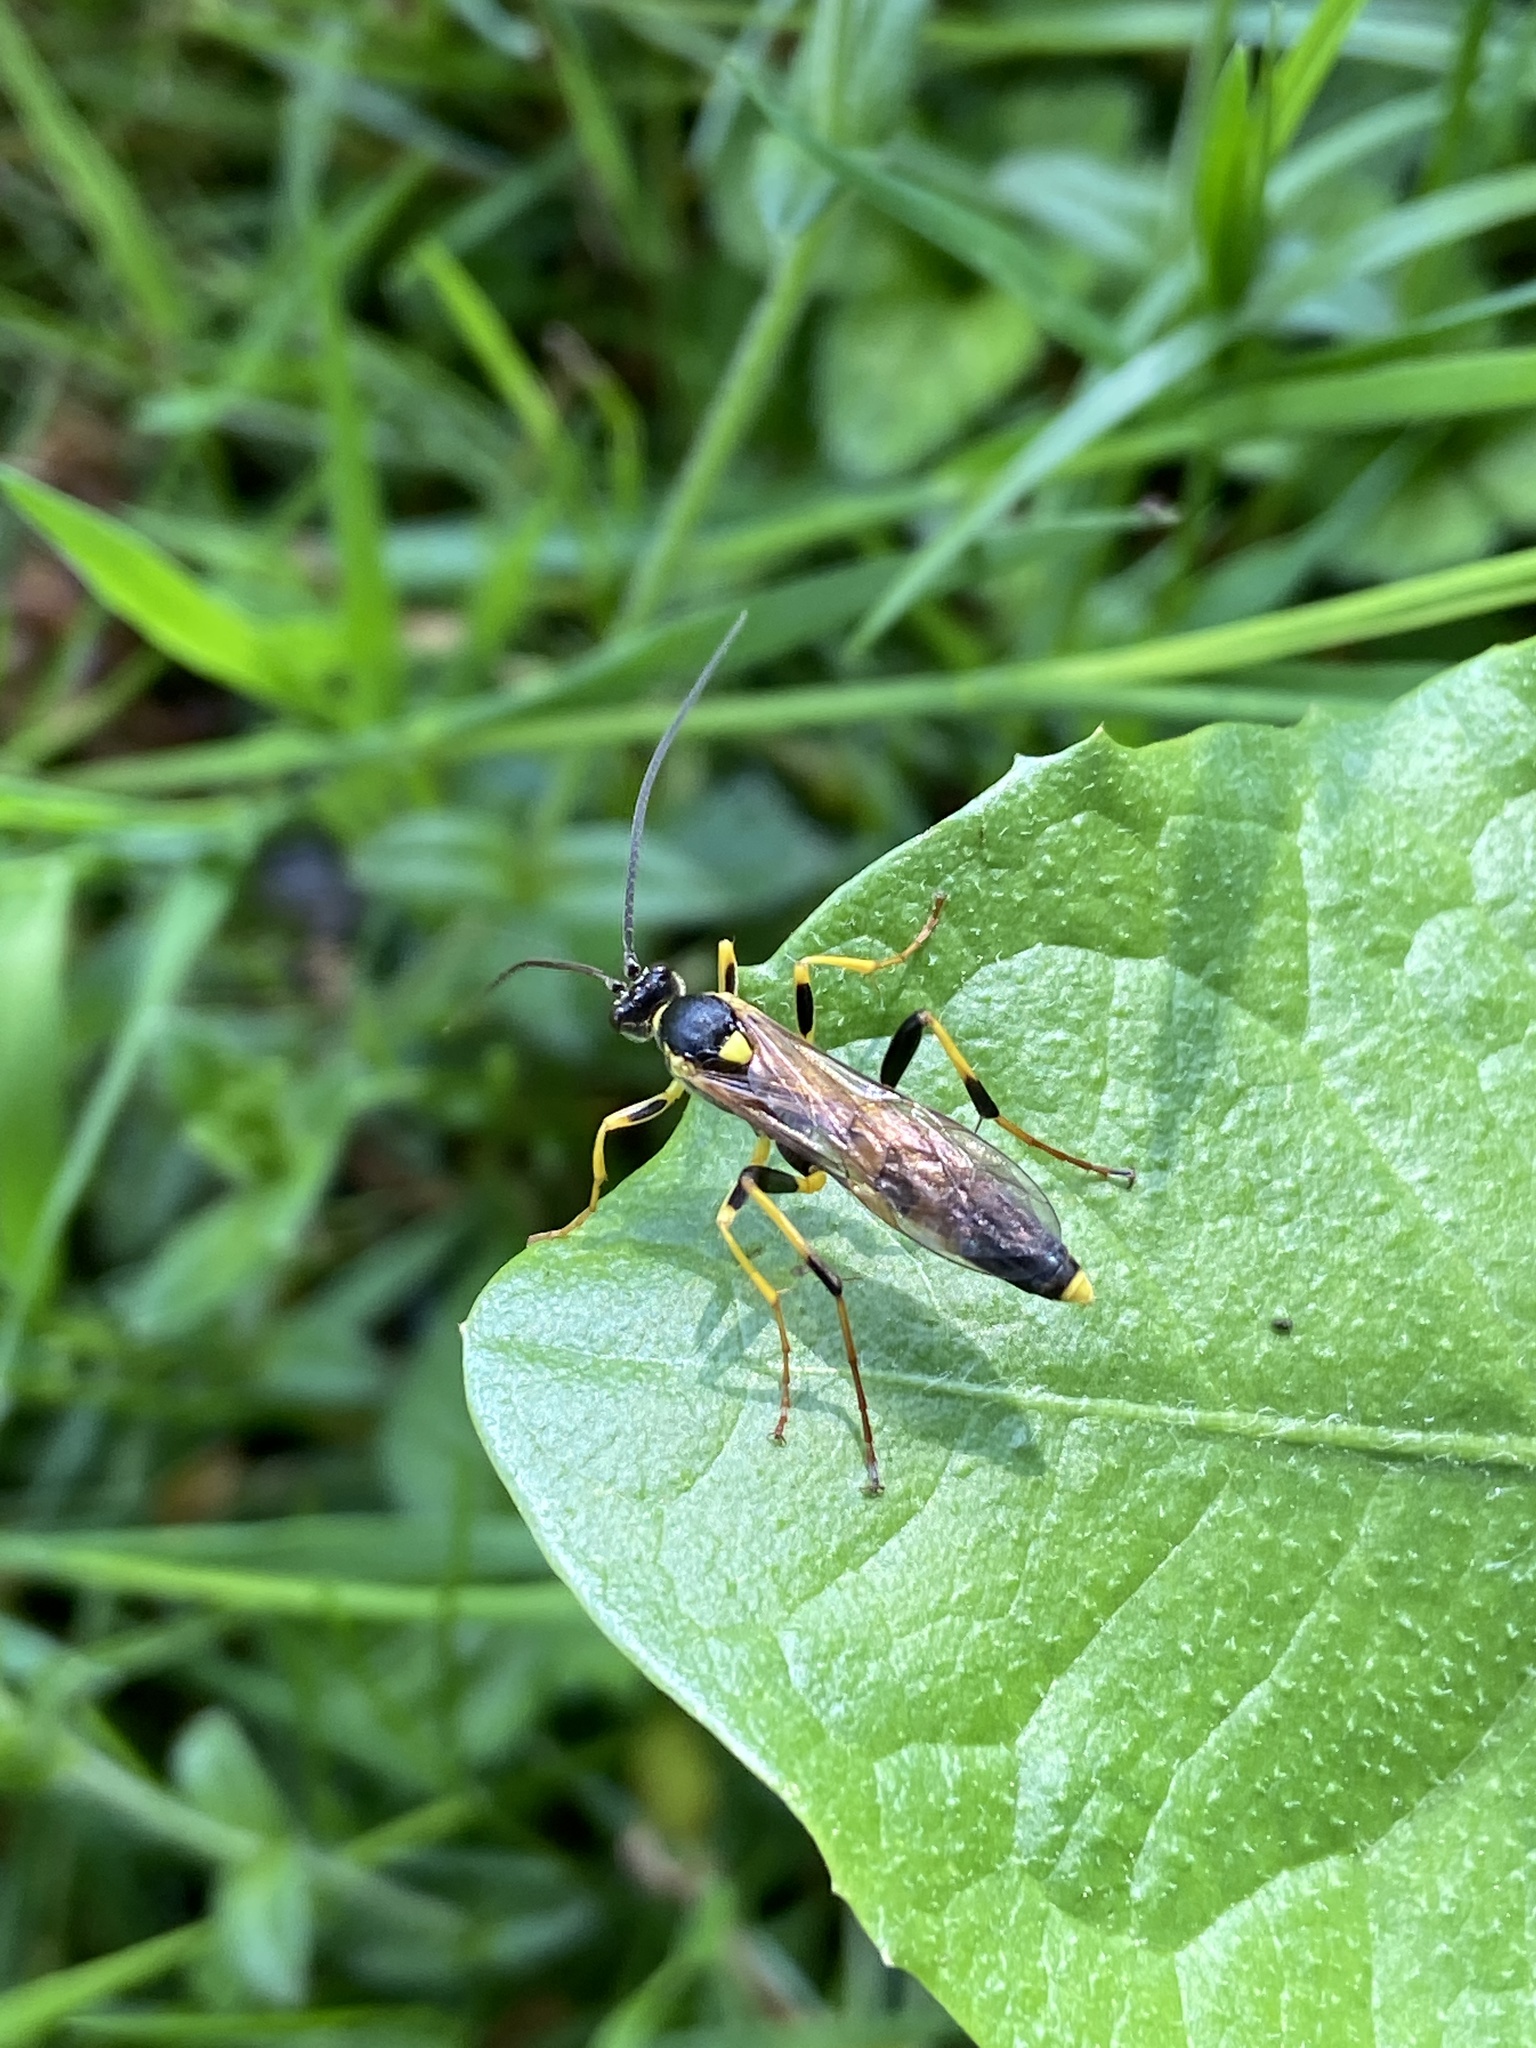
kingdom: Animalia
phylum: Arthropoda
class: Insecta
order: Hymenoptera
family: Ichneumonidae
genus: Amblyteles
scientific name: Amblyteles armatorius
